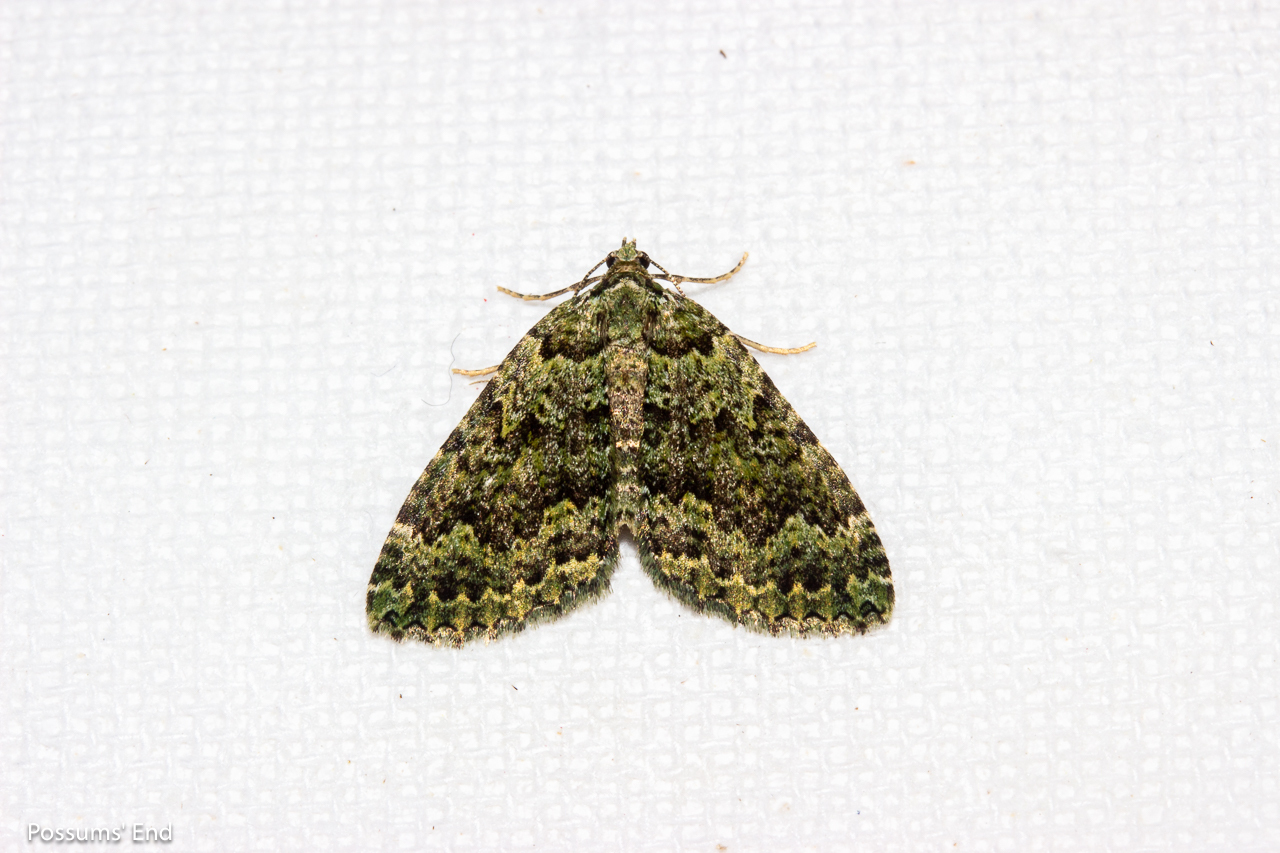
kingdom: Animalia
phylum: Arthropoda
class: Insecta
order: Lepidoptera
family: Geometridae
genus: Austrocidaria
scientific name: Austrocidaria callichlora
